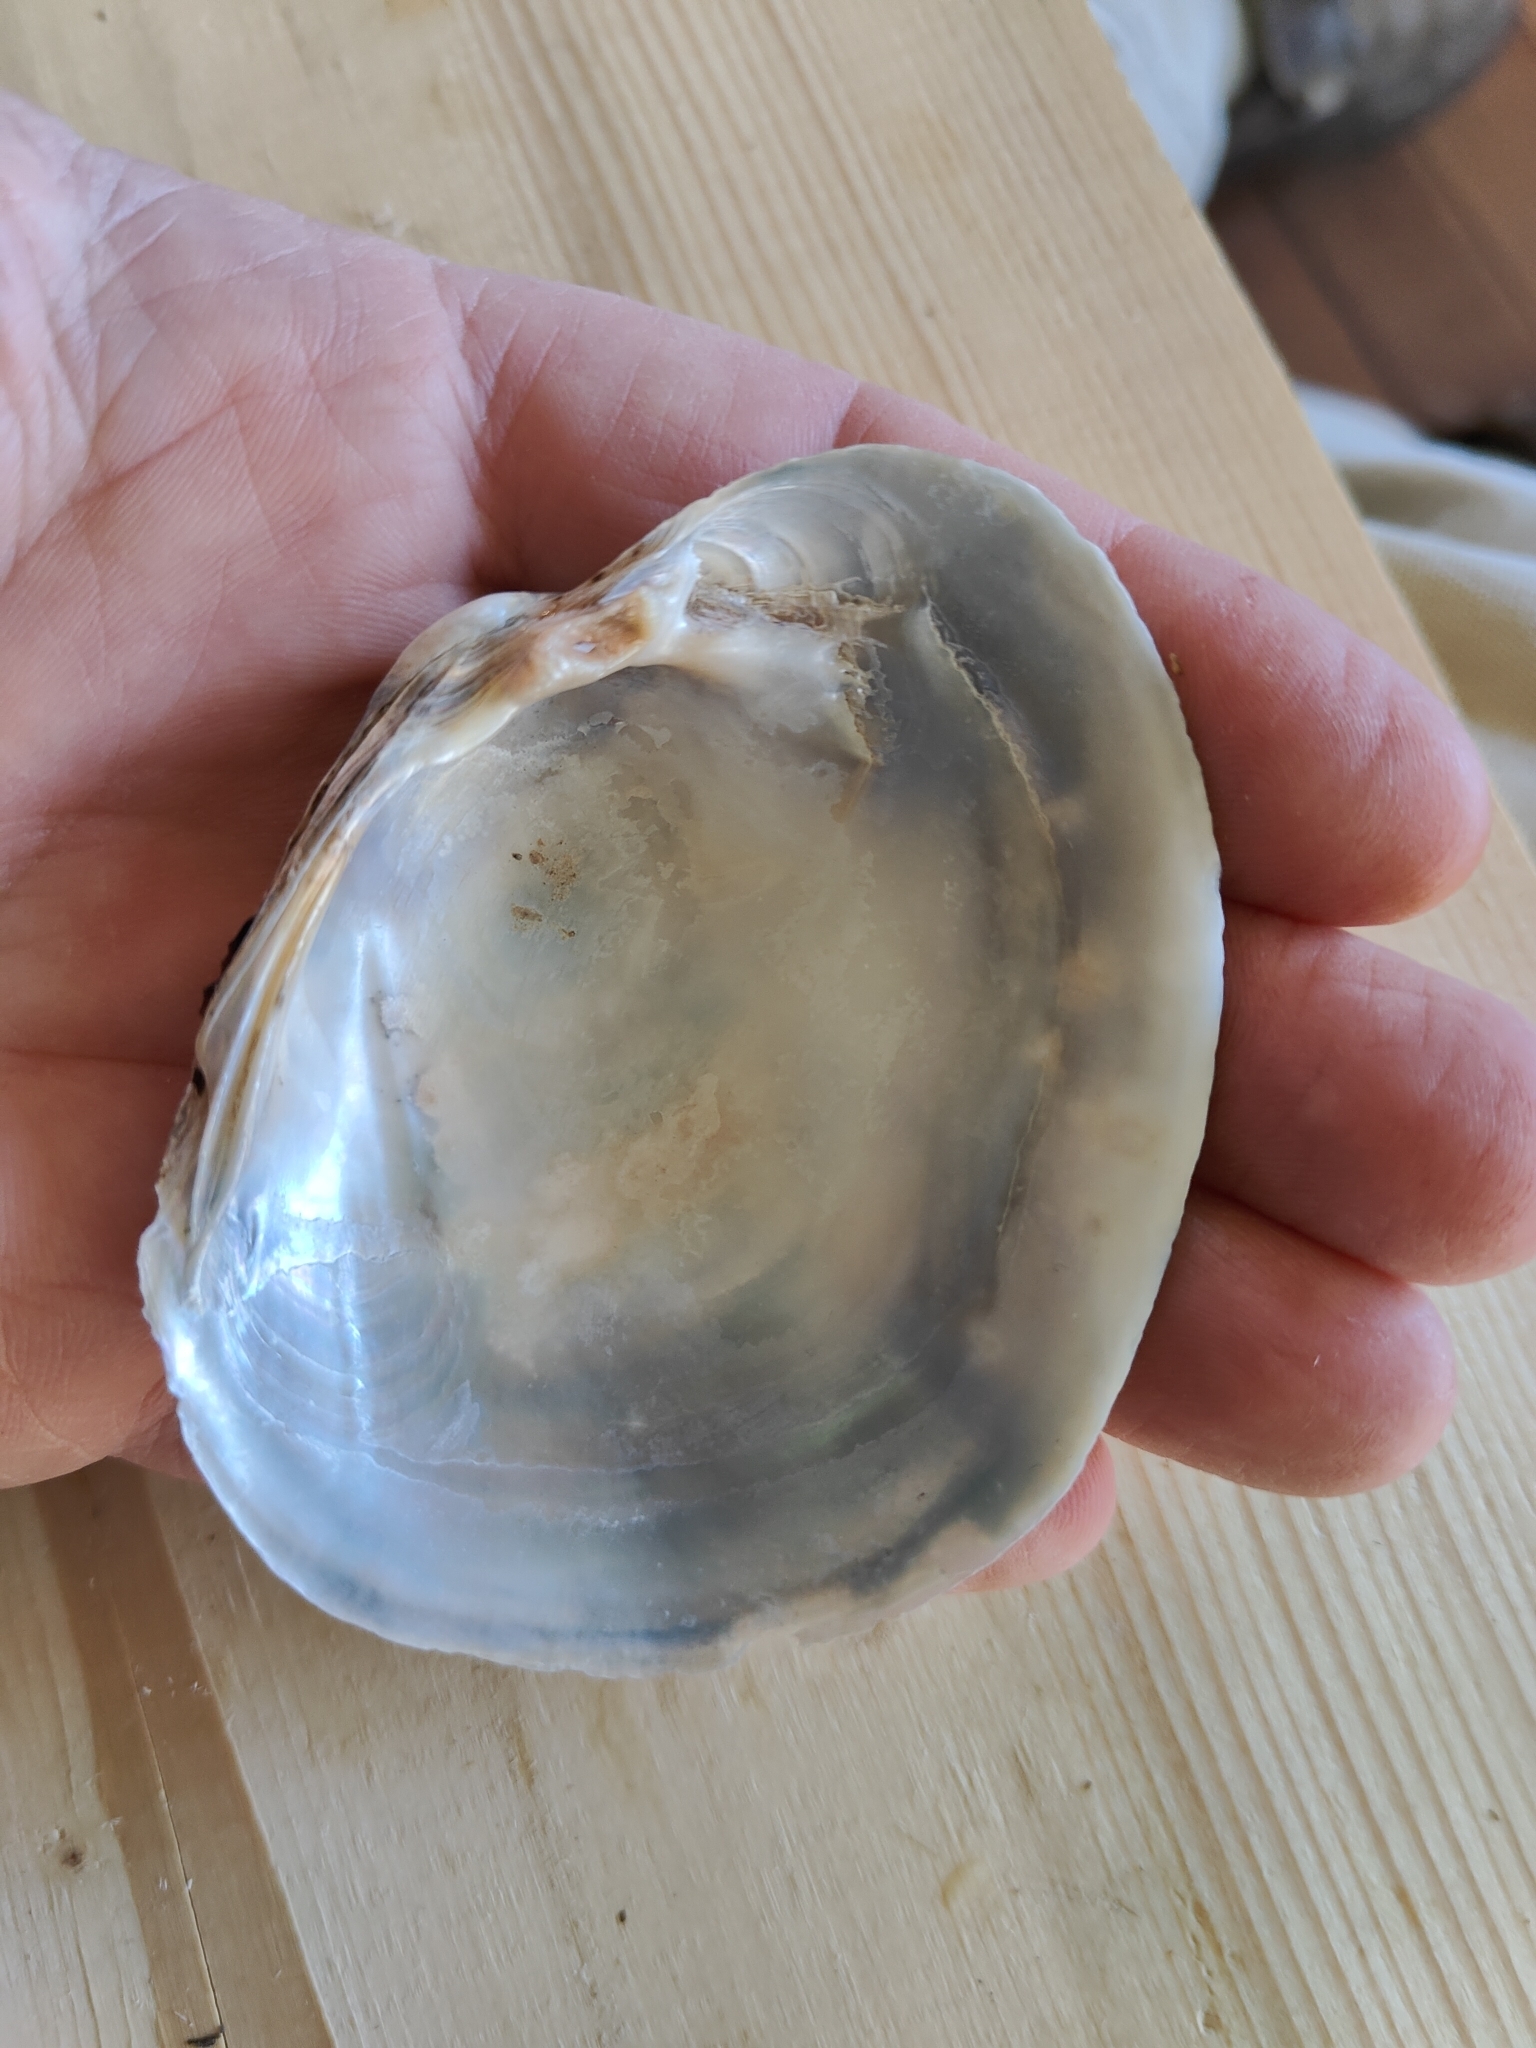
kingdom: Animalia
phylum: Mollusca
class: Bivalvia
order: Unionida
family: Unionidae
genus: Lampsilis
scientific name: Lampsilis cardium
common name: Plain pocketbook
